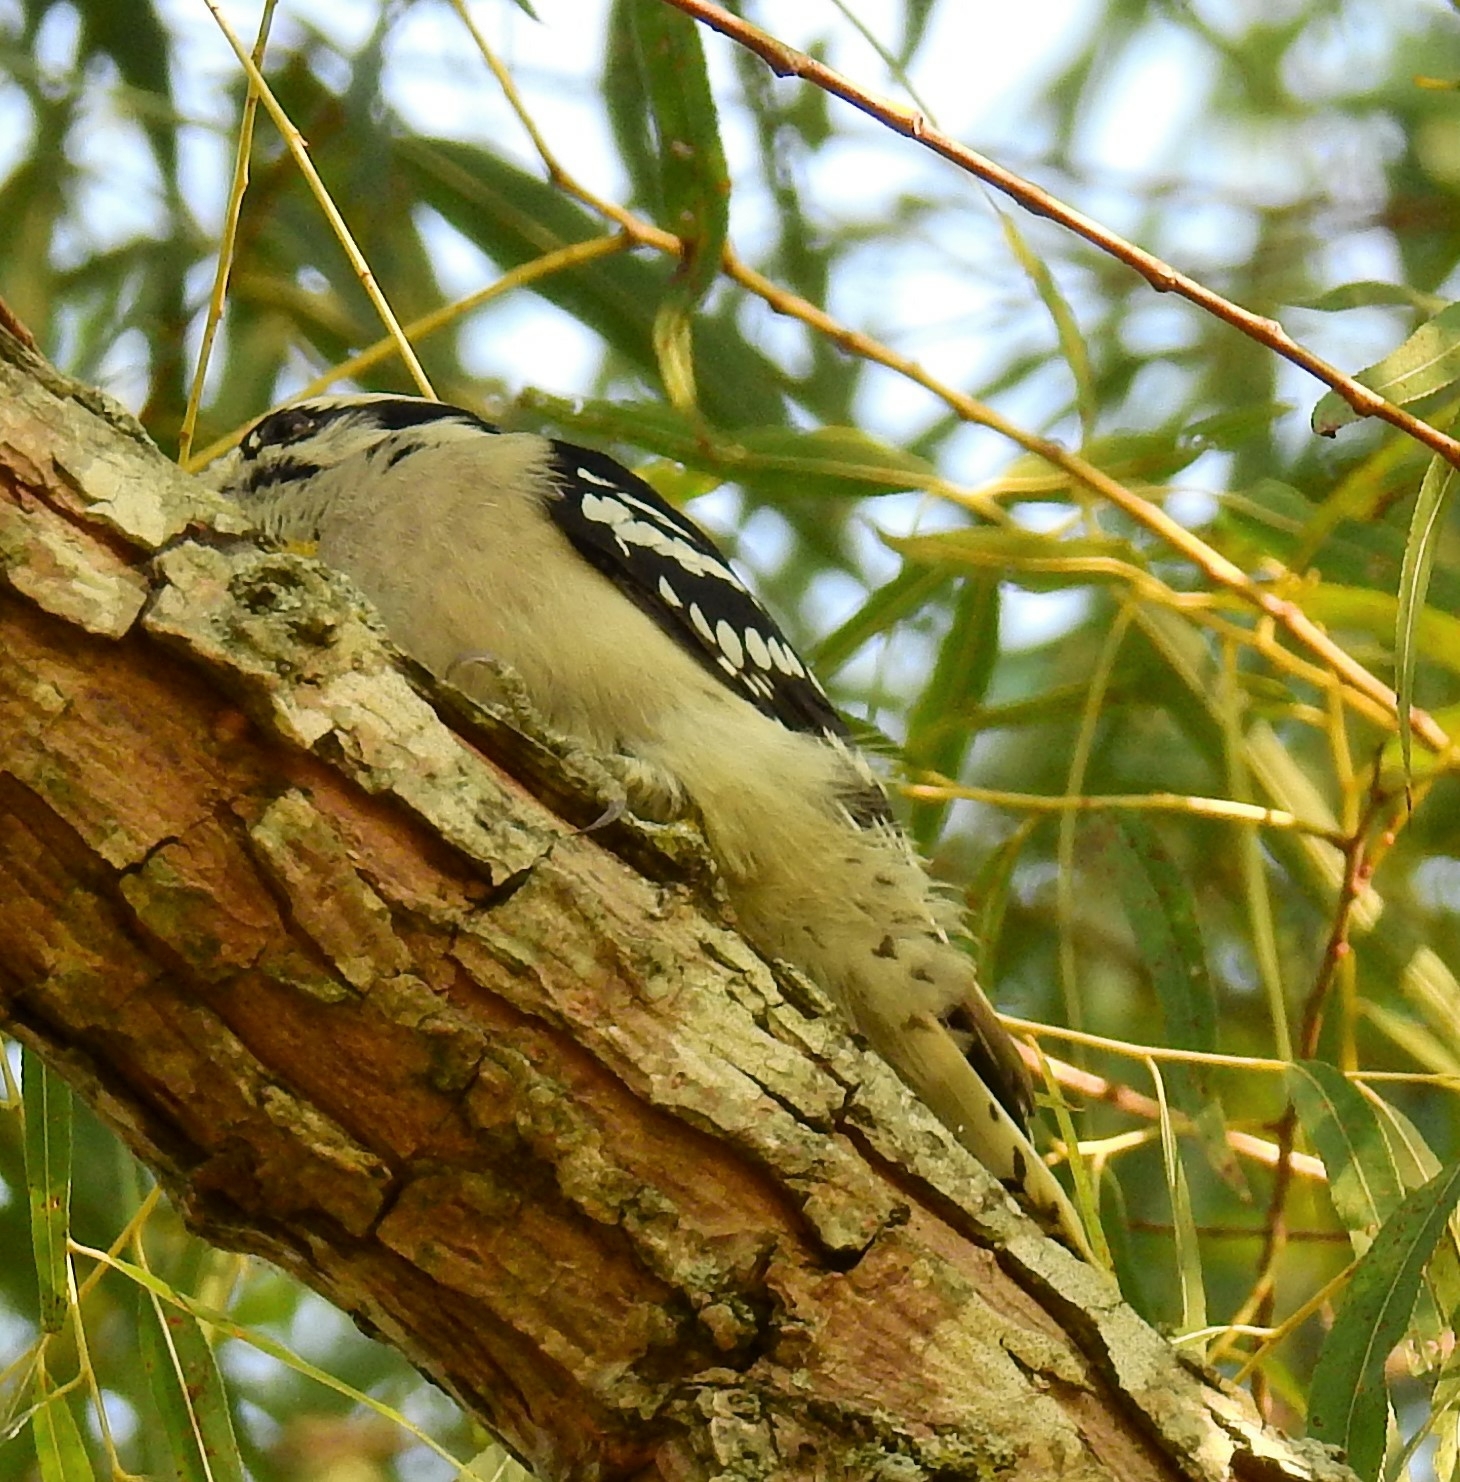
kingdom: Animalia
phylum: Chordata
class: Aves
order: Piciformes
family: Picidae
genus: Dryobates
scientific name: Dryobates pubescens
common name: Downy woodpecker
